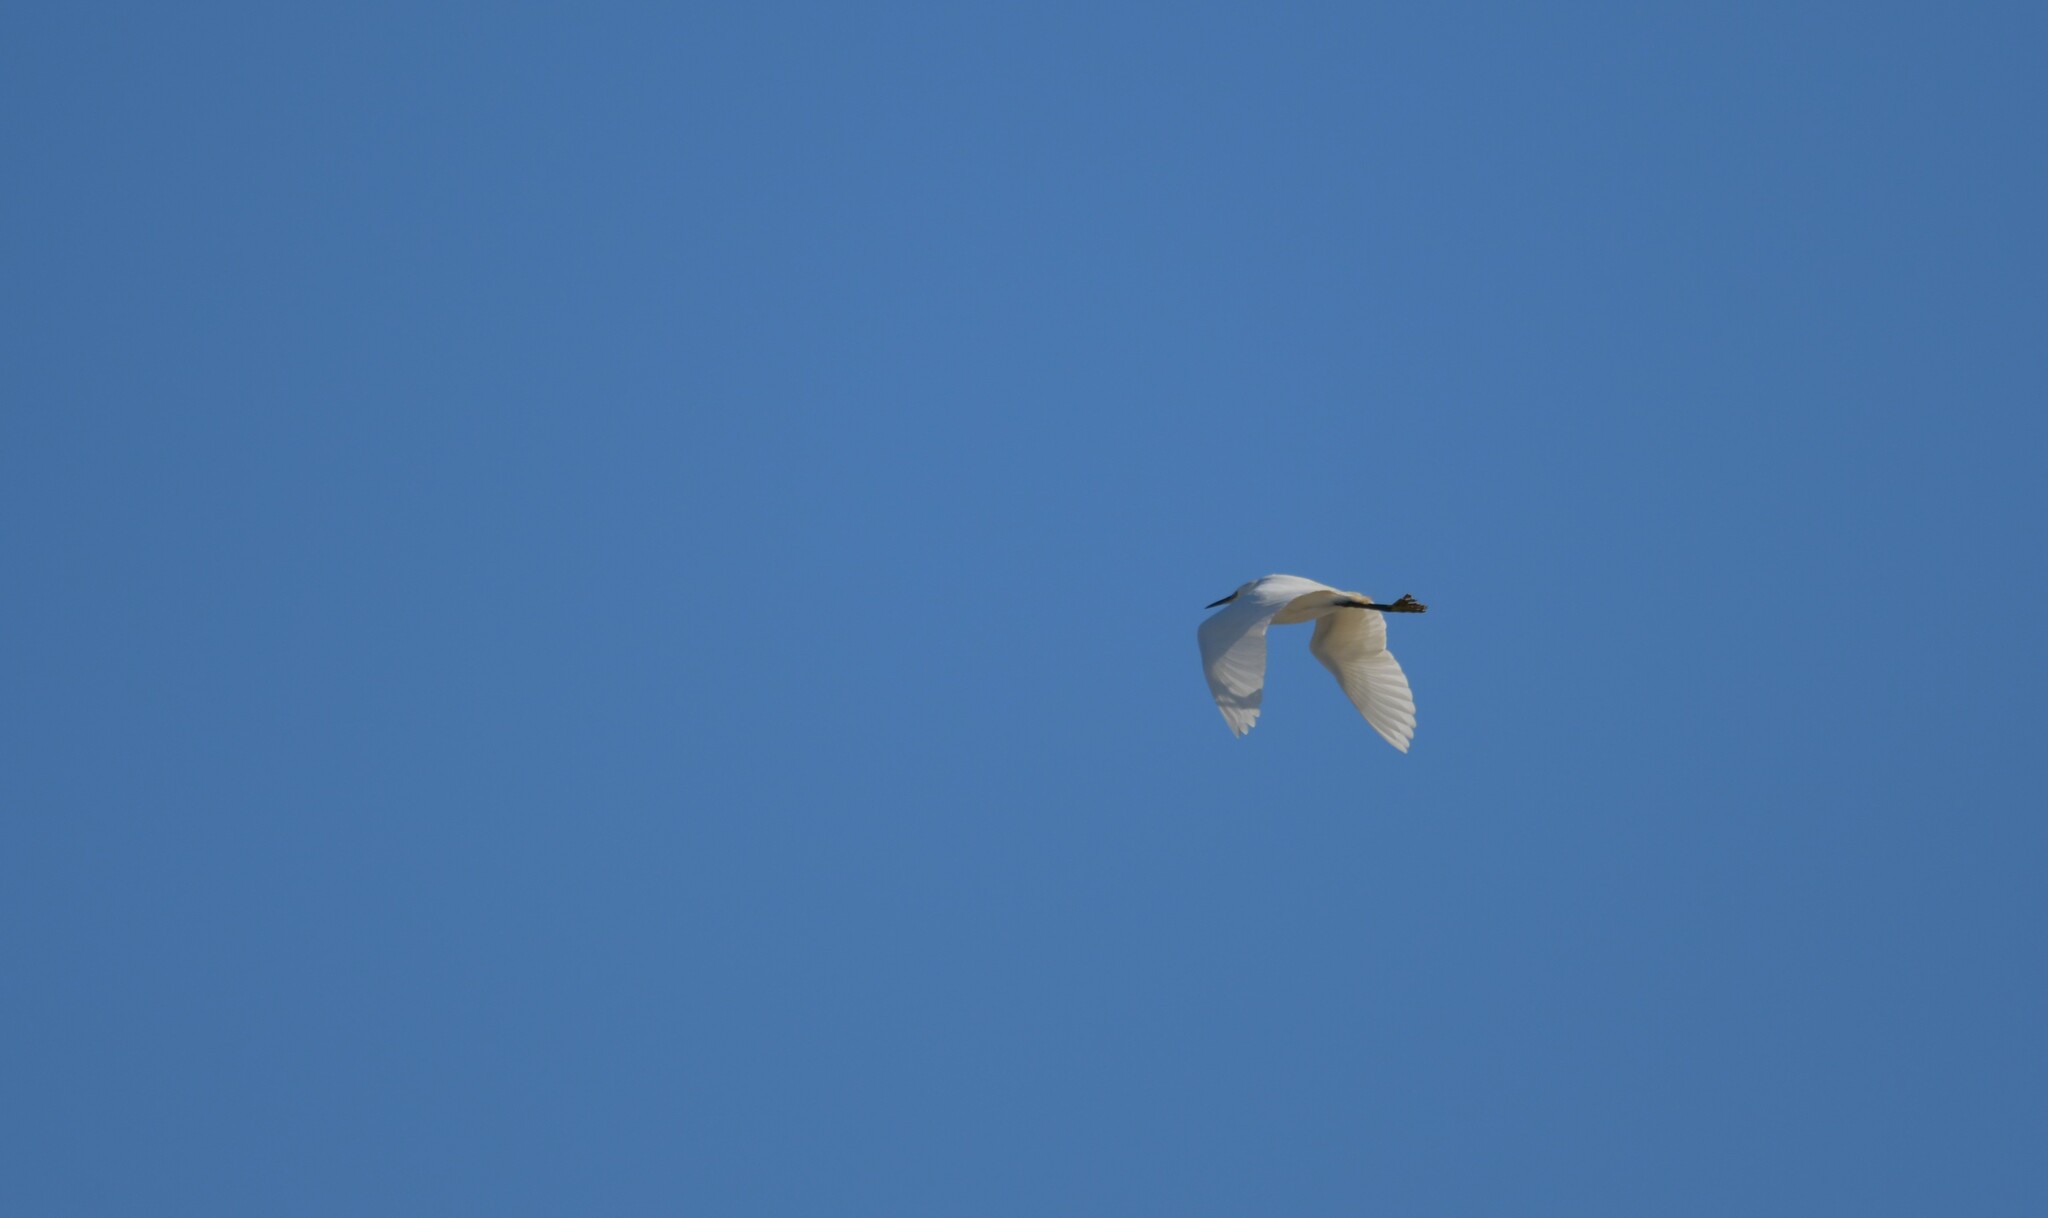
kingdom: Animalia
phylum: Chordata
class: Aves
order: Pelecaniformes
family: Ardeidae
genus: Egretta
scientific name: Egretta garzetta
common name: Little egret
